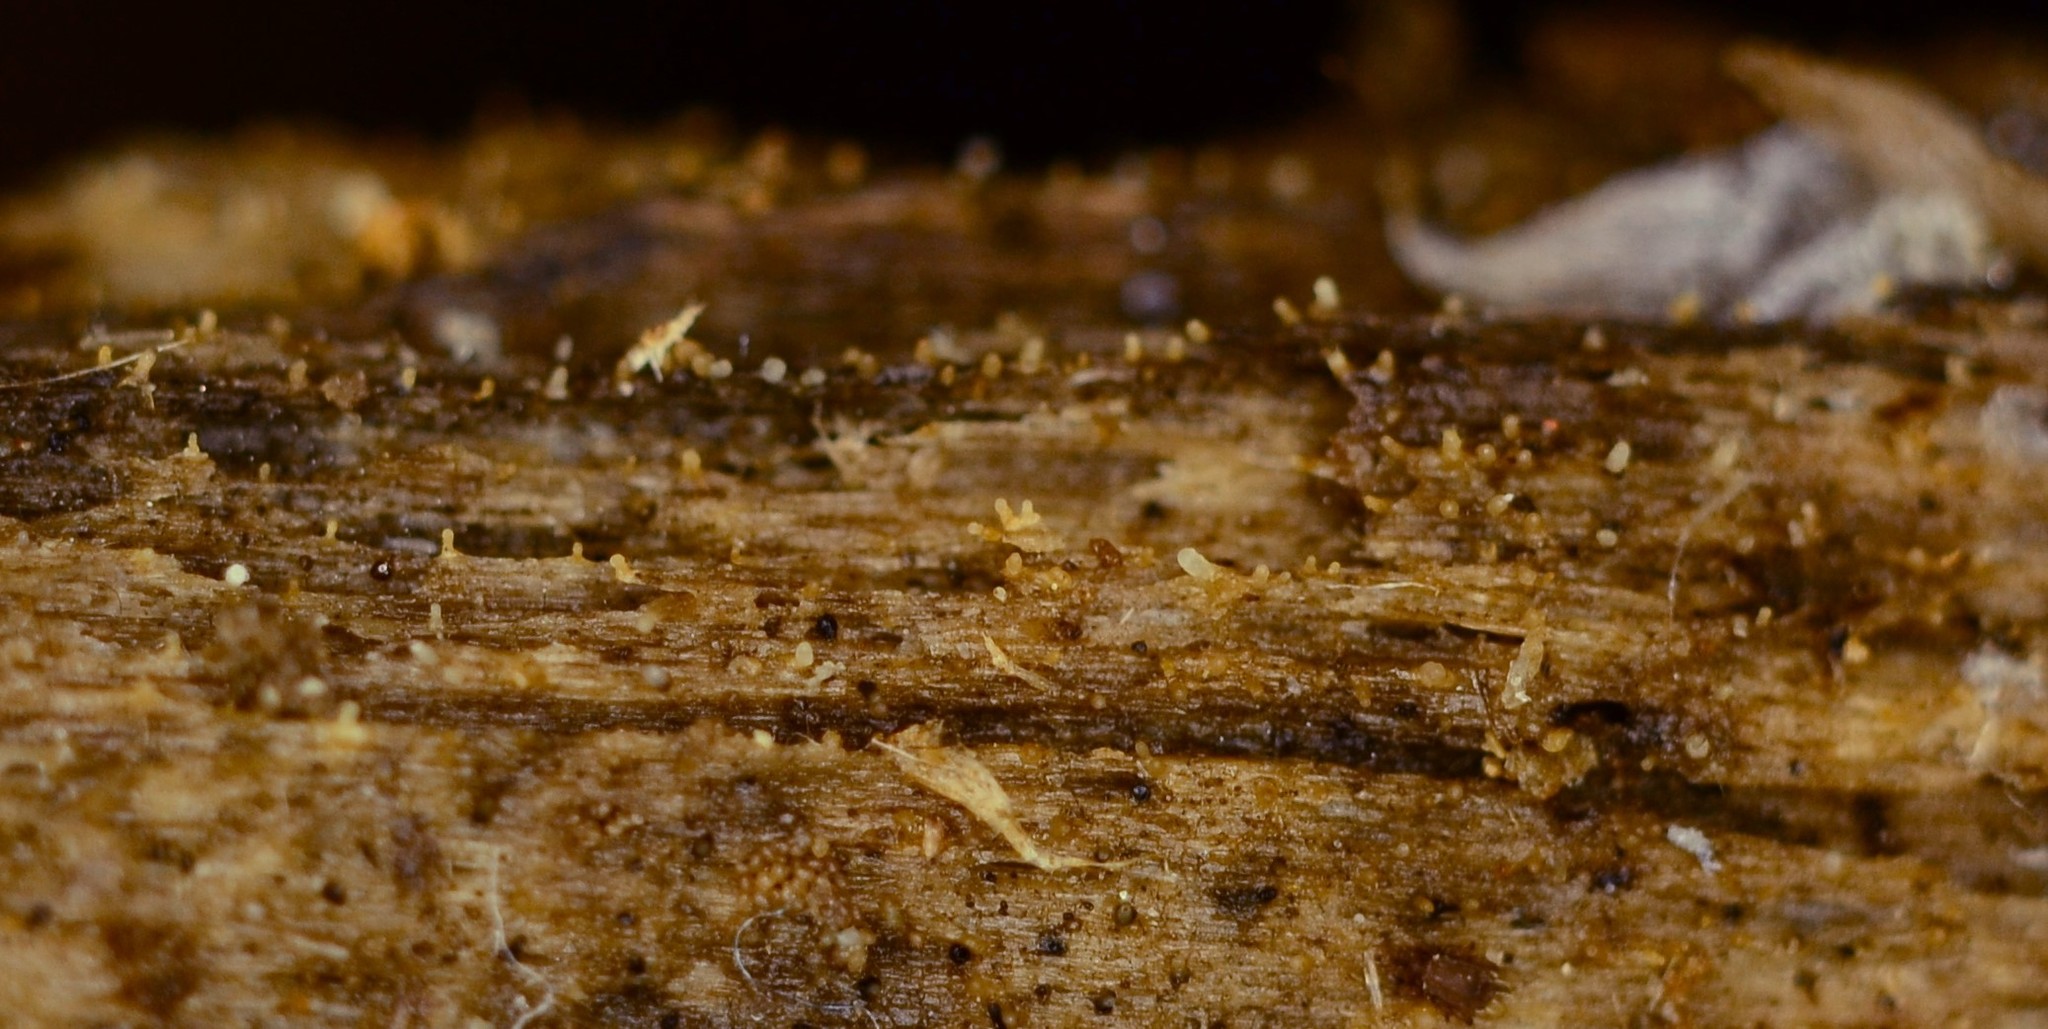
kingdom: Fungi
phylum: Ascomycota
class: Leotiomycetes
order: Helotiales
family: Dermateaceae
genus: Everhartia
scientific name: Everhartia lignatilis
